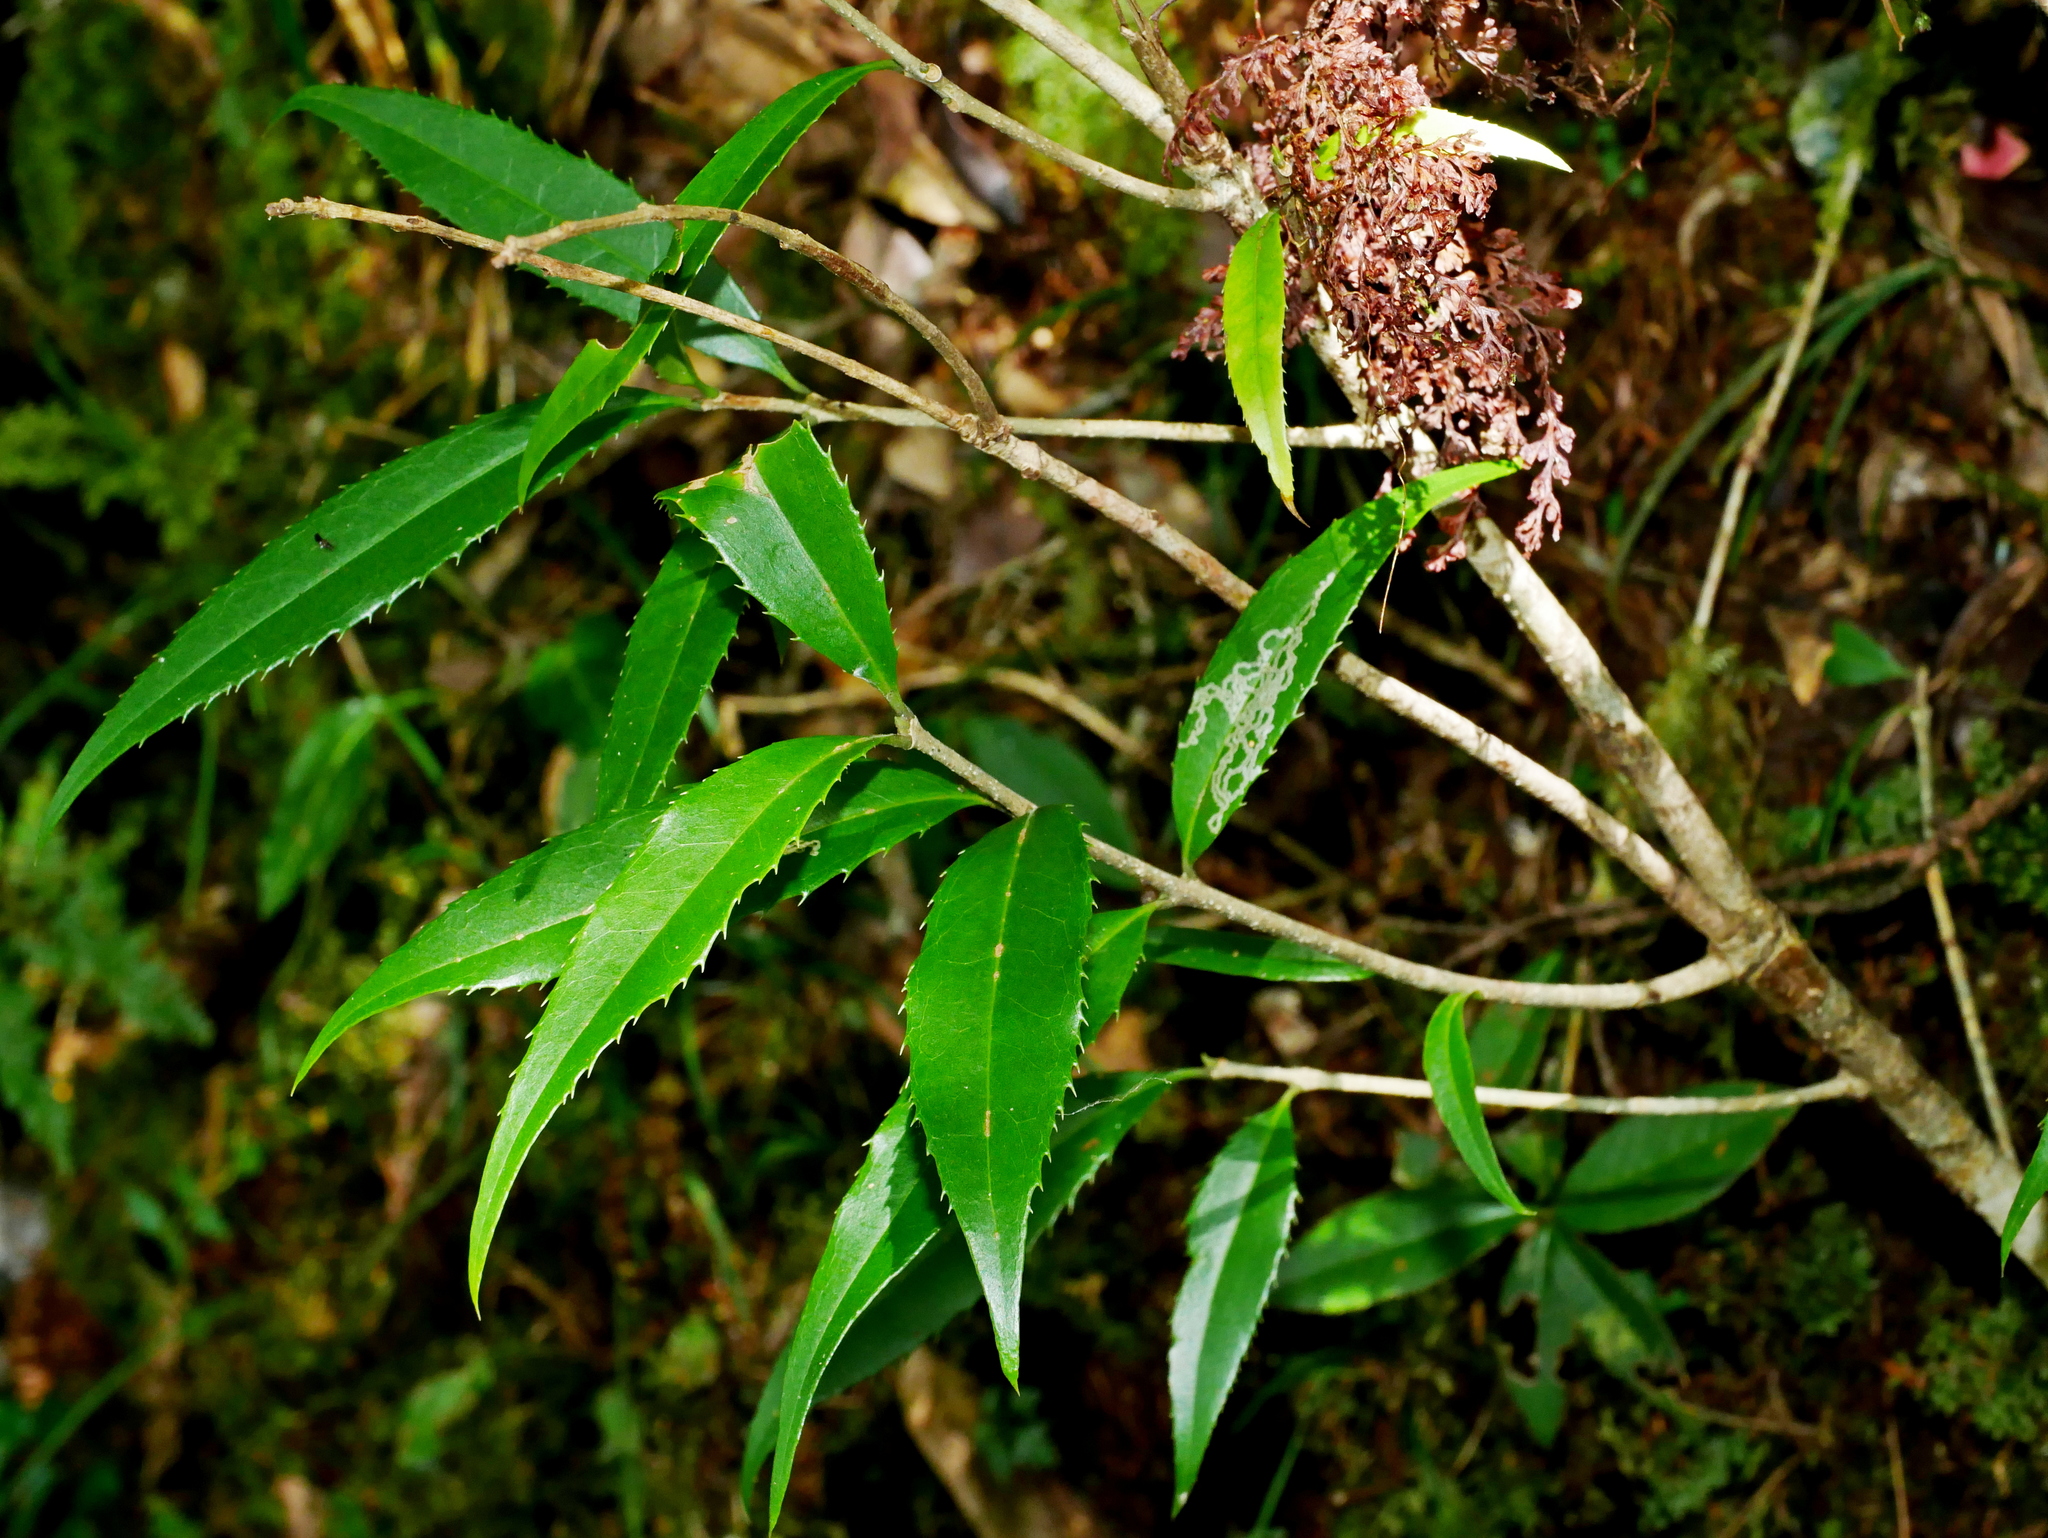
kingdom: Plantae
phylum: Tracheophyta
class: Magnoliopsida
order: Lamiales
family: Oleaceae
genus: Osmanthus
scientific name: Osmanthus lanceolatus
